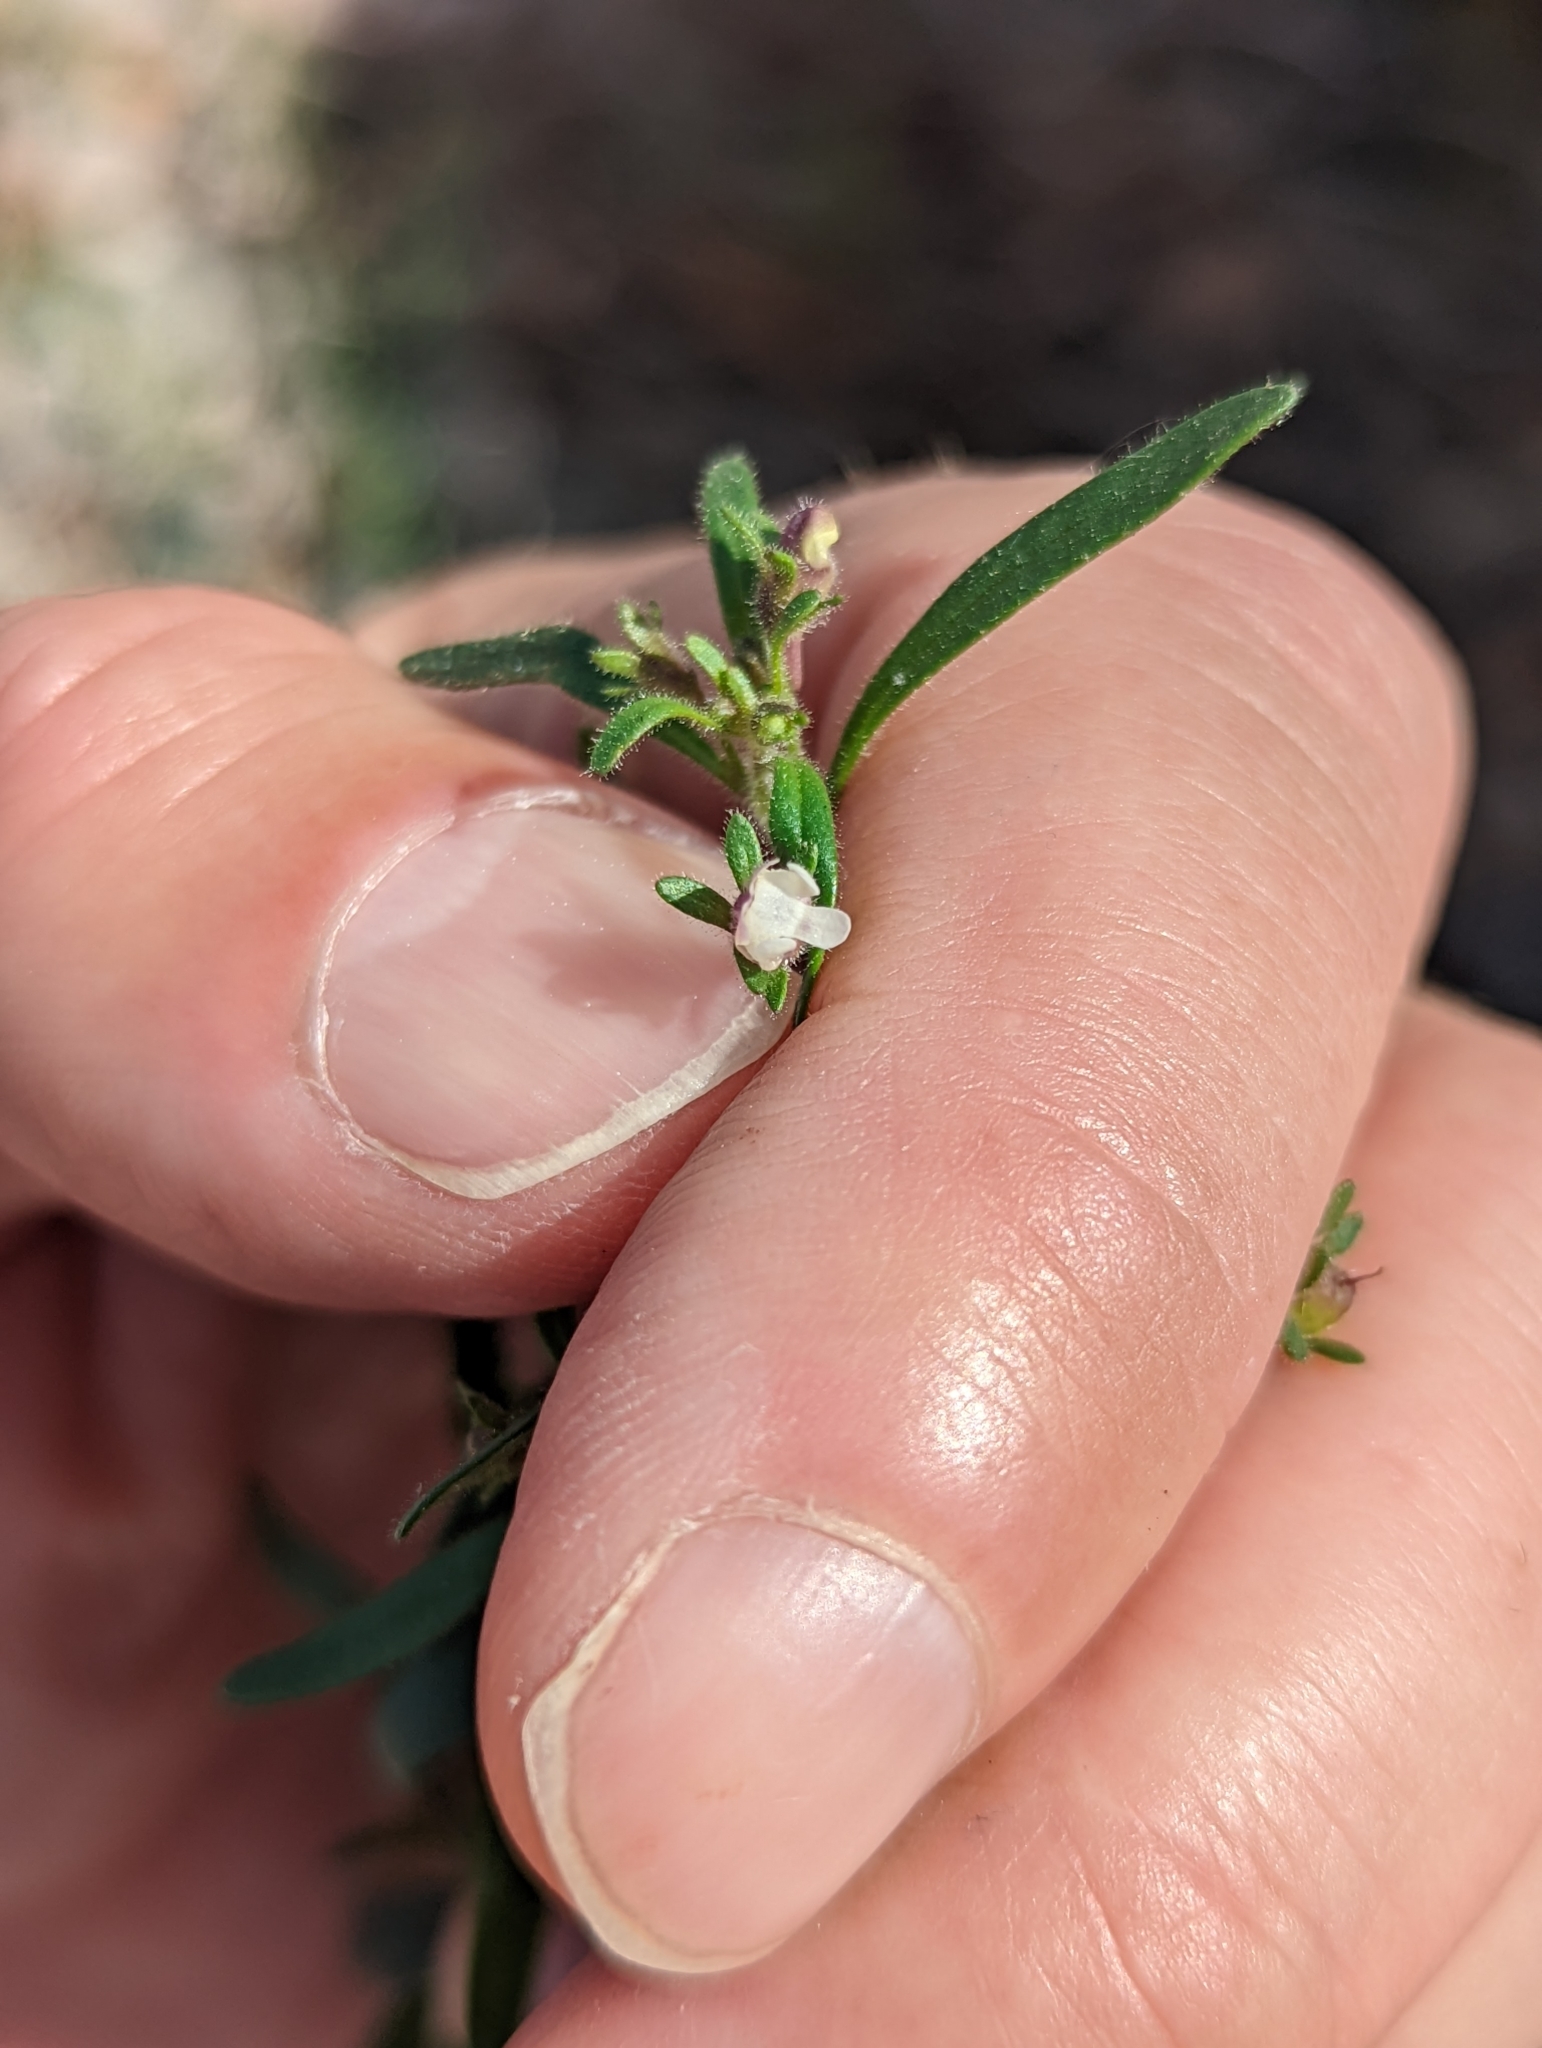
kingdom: Plantae
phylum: Tracheophyta
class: Magnoliopsida
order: Lamiales
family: Plantaginaceae
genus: Chaenorhinum
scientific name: Chaenorhinum minus
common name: Dwarf snapdragon
